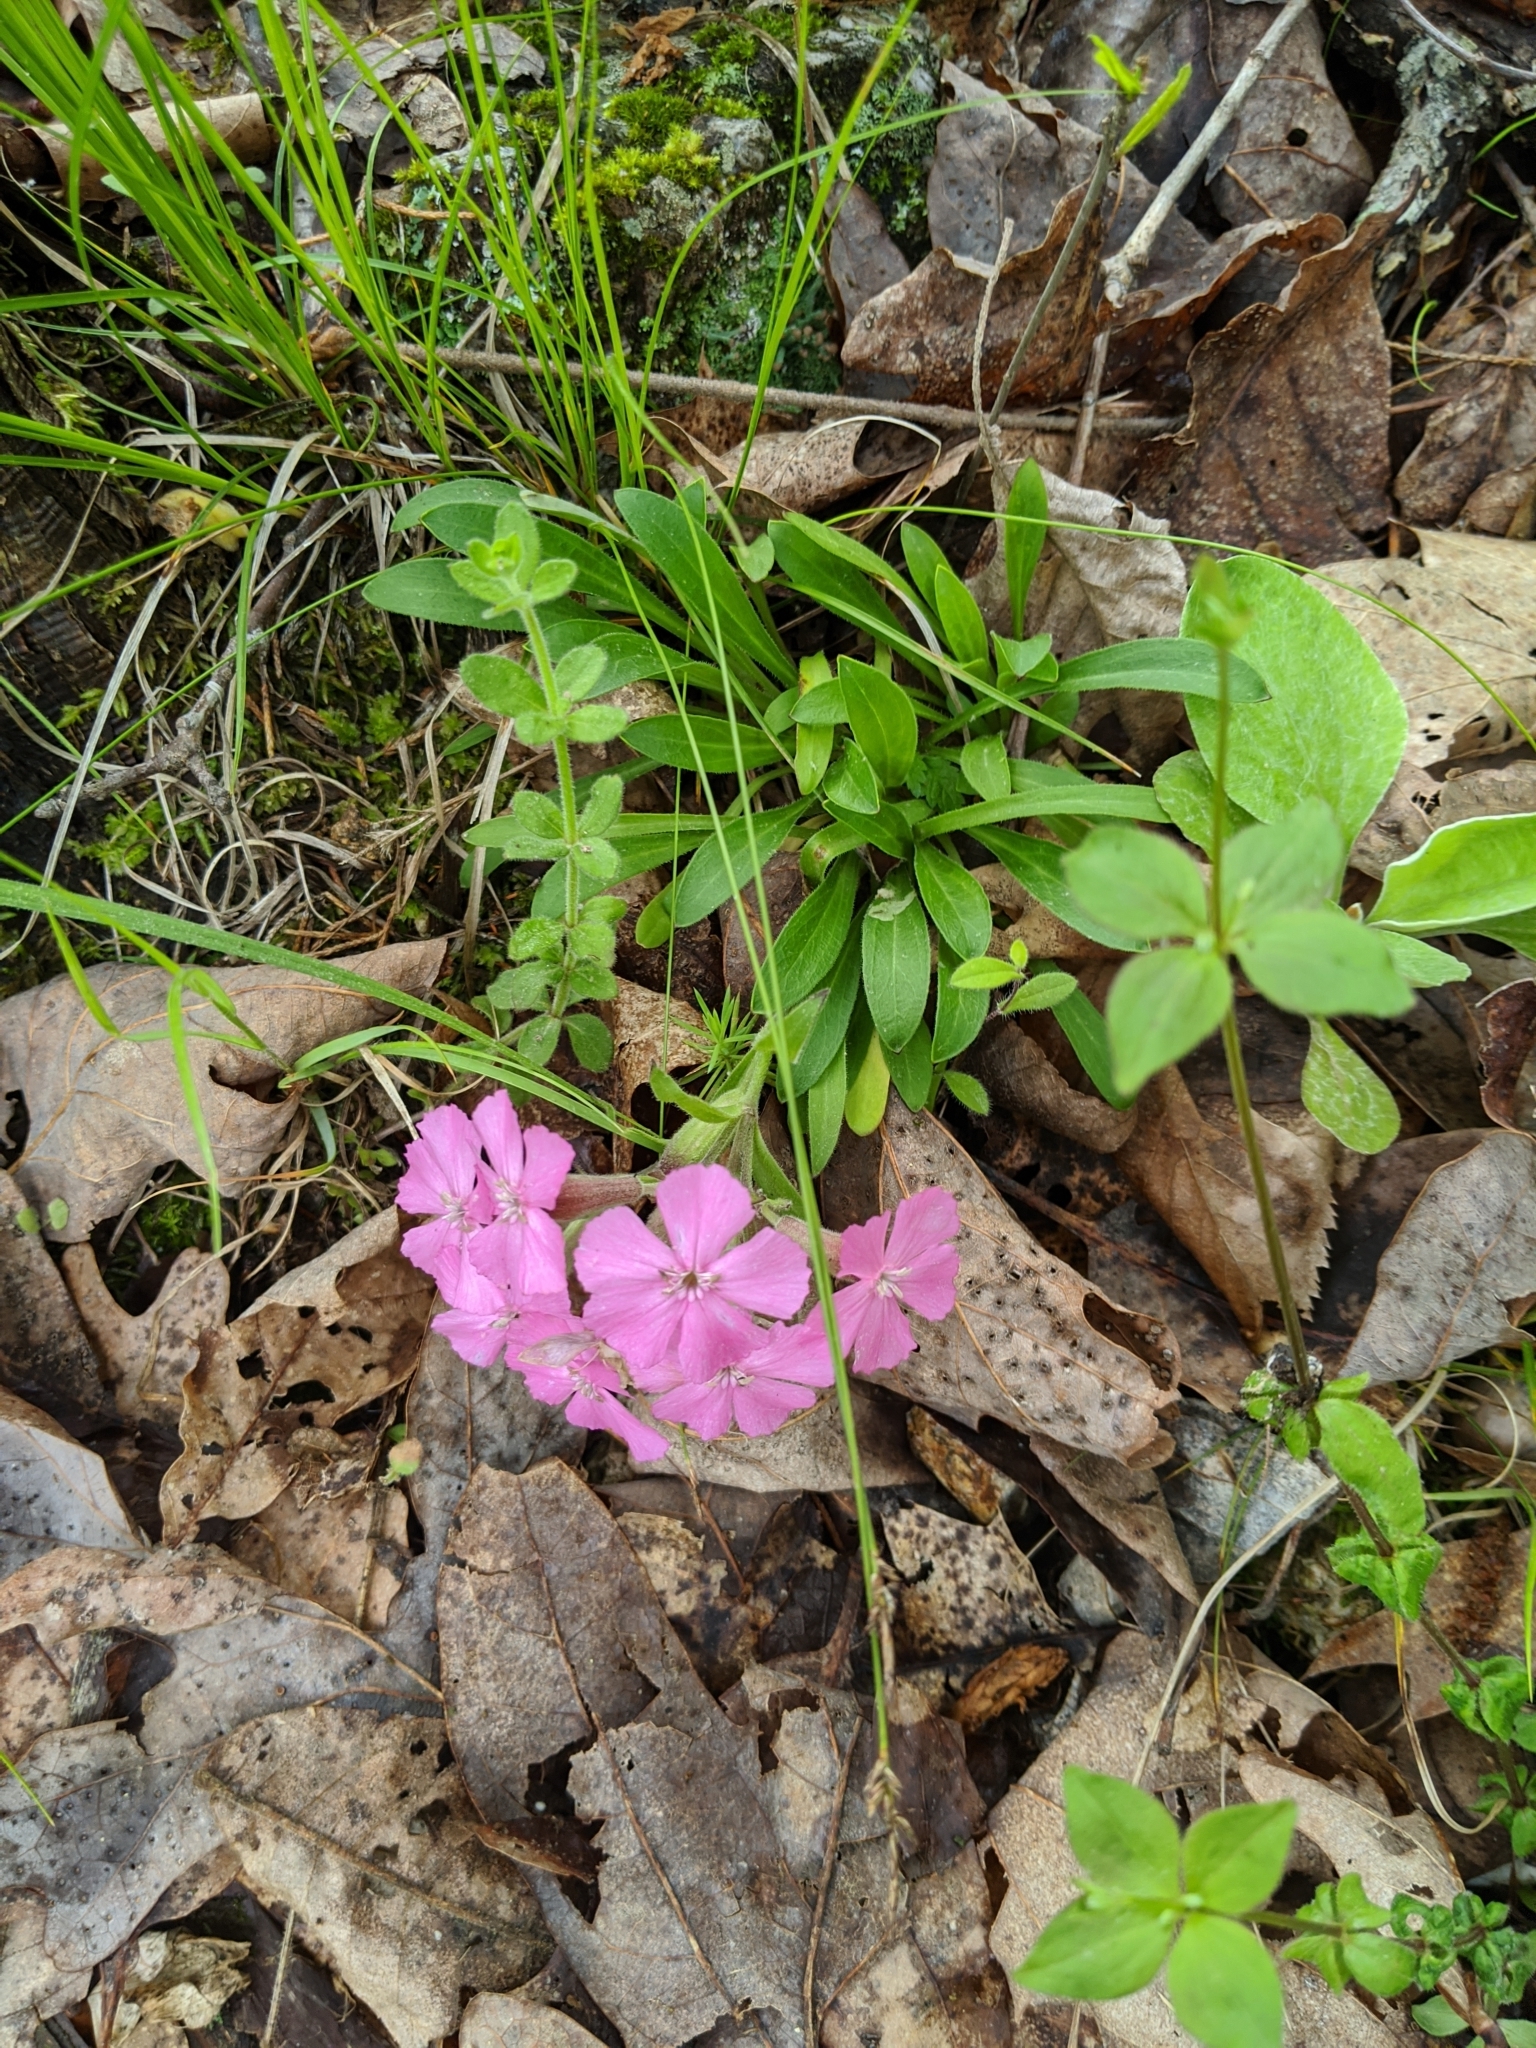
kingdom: Plantae
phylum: Tracheophyta
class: Magnoliopsida
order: Caryophyllales
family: Caryophyllaceae
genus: Silene
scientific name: Silene caroliniana
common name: Sticky catchfly
